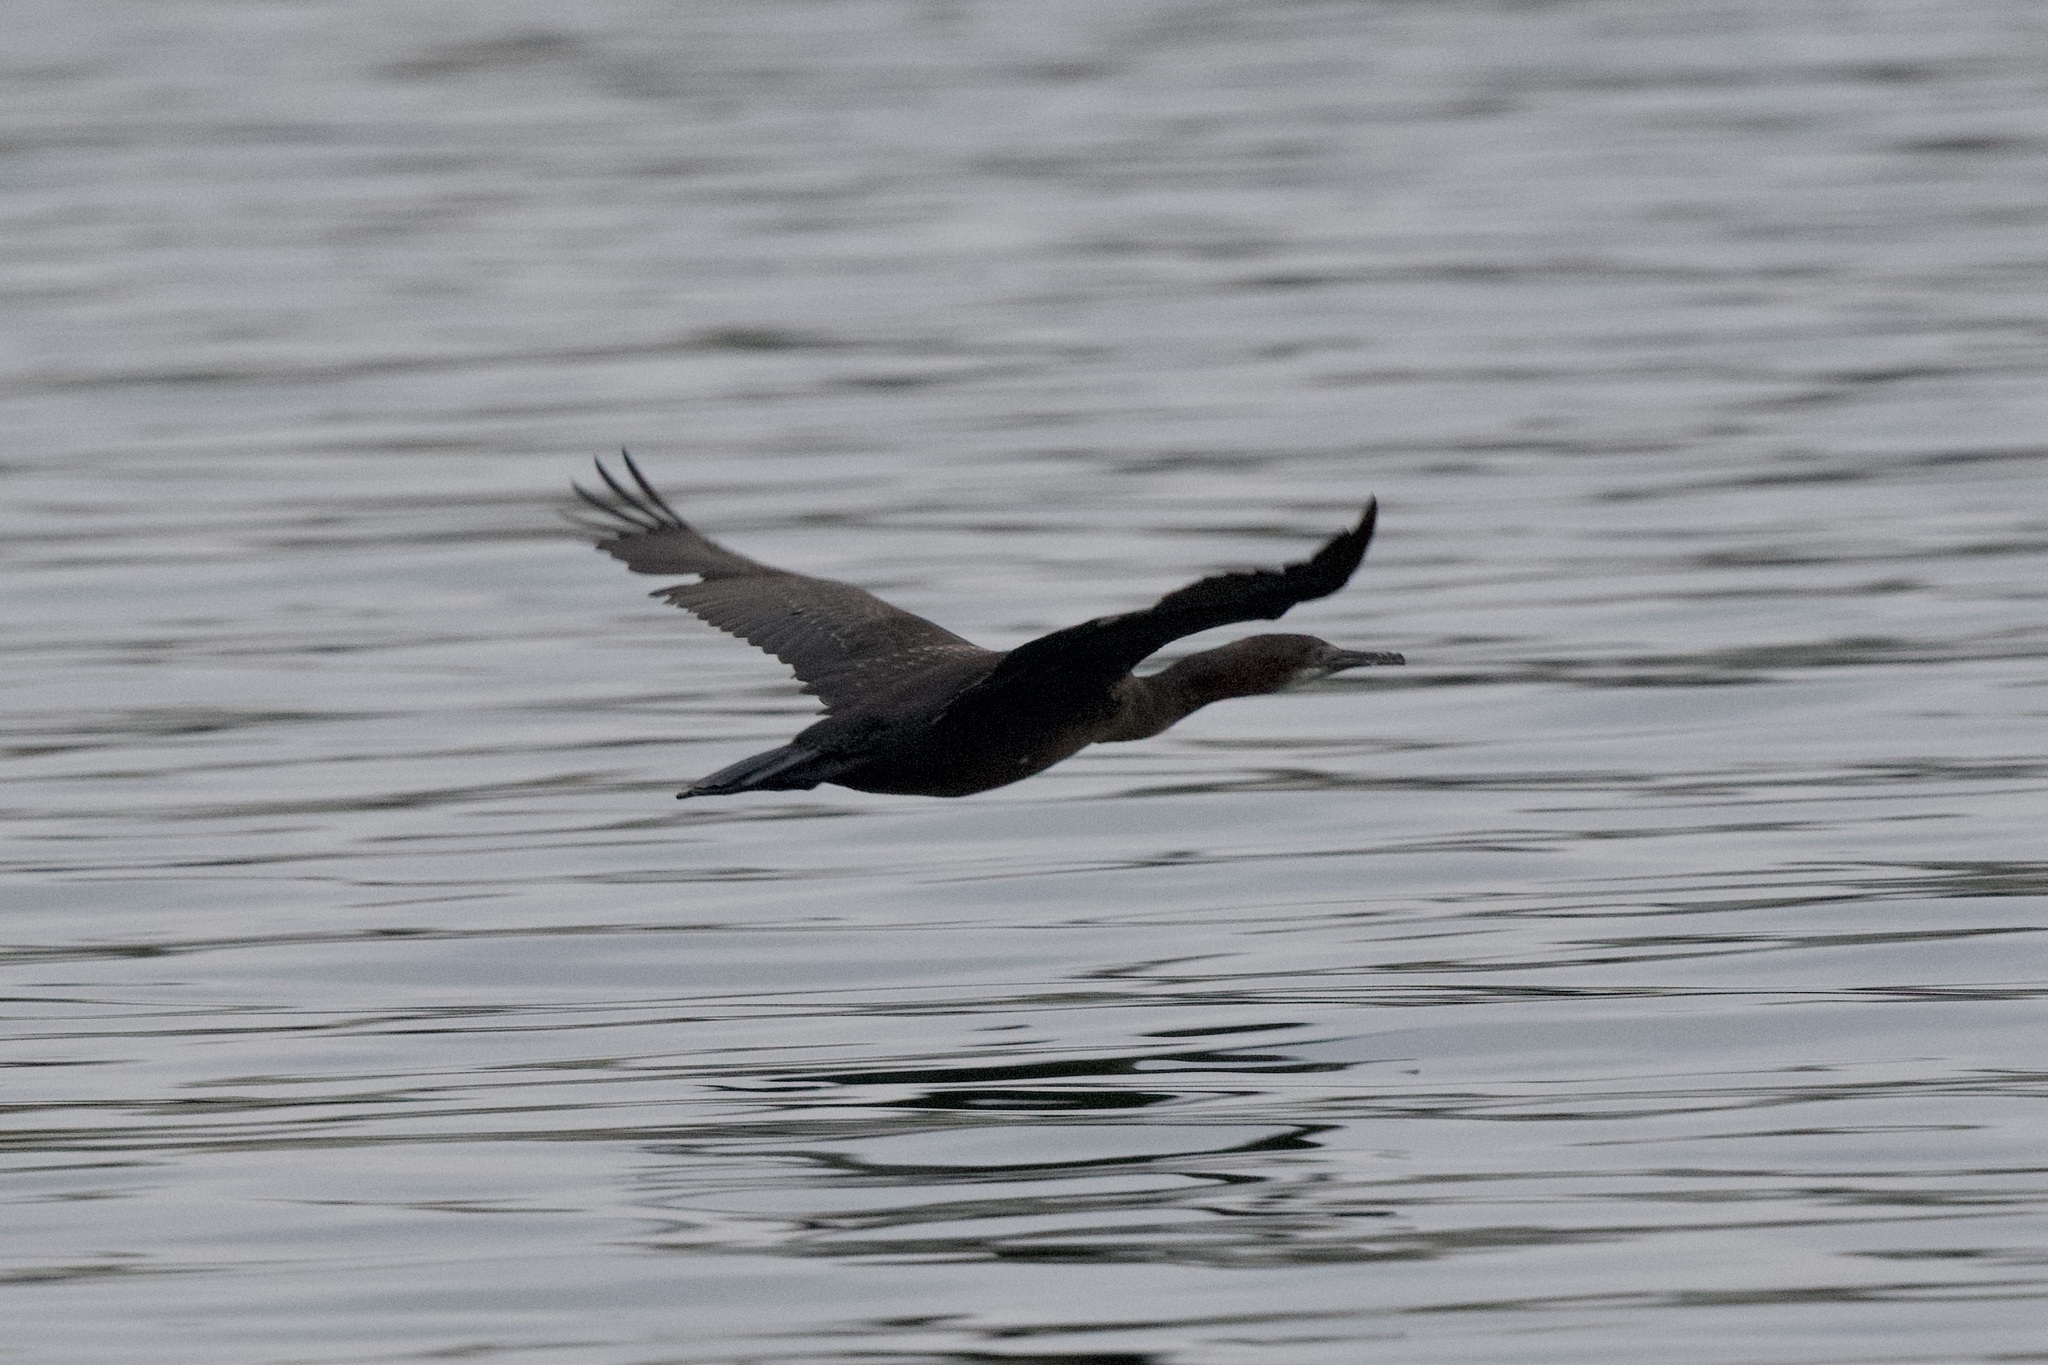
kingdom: Animalia
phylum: Chordata
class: Aves
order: Suliformes
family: Phalacrocoracidae
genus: Urile
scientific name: Urile penicillatus
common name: Brandt's cormorant
